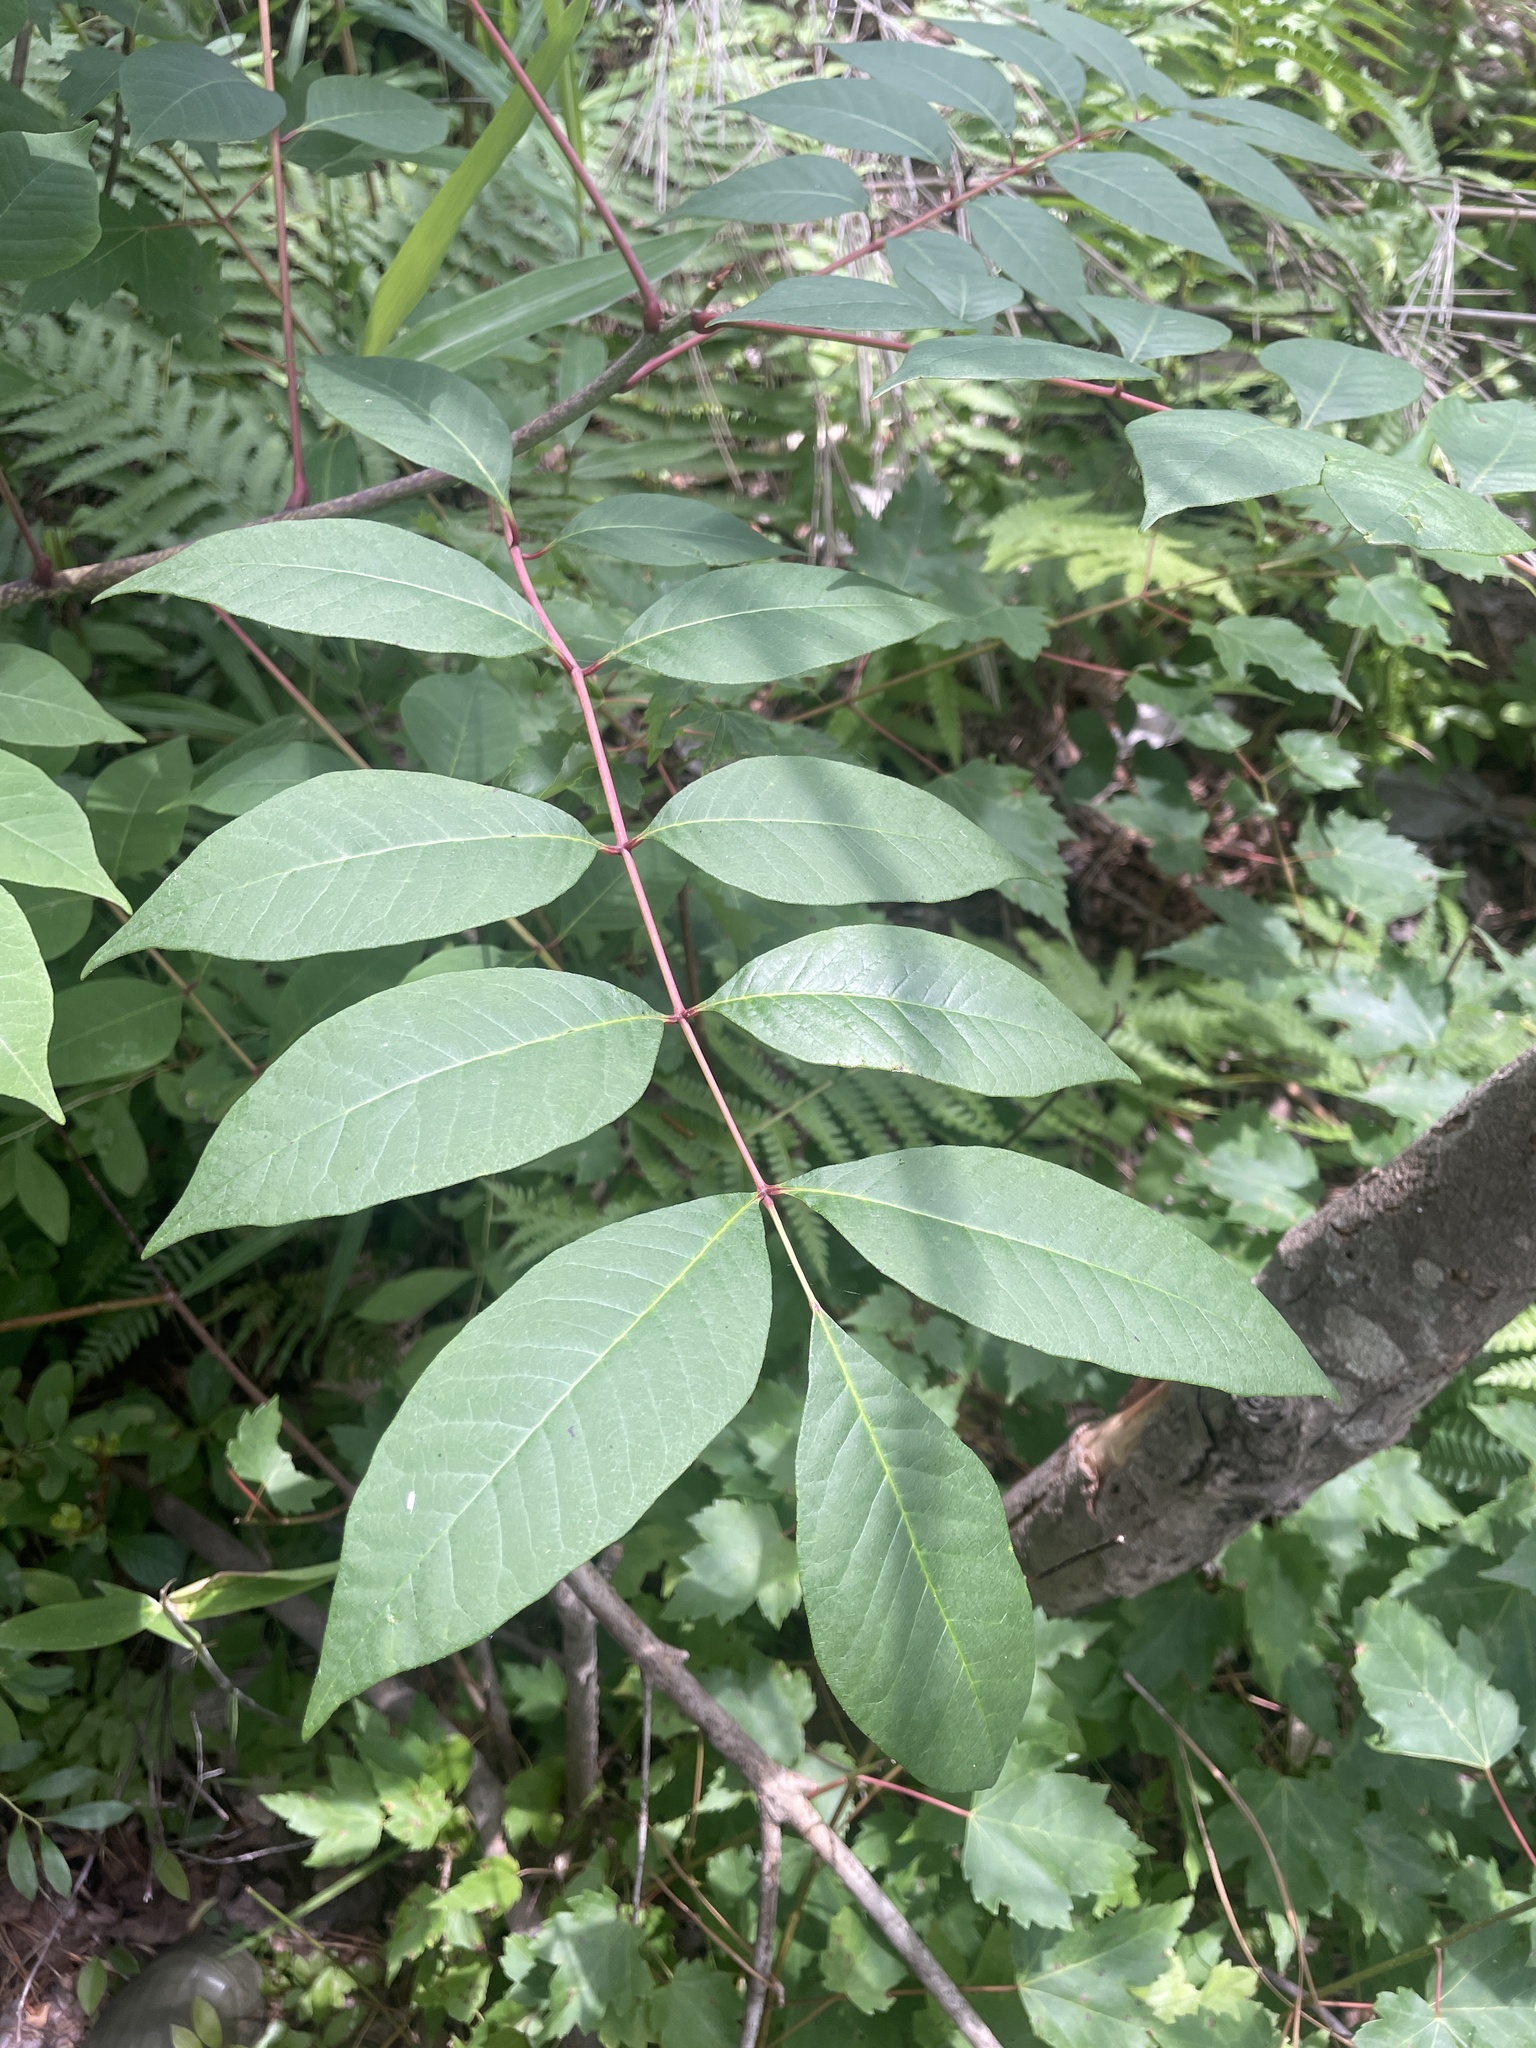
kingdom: Plantae
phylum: Tracheophyta
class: Magnoliopsida
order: Sapindales
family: Anacardiaceae
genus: Toxicodendron
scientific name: Toxicodendron vernix
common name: Poison sumac
